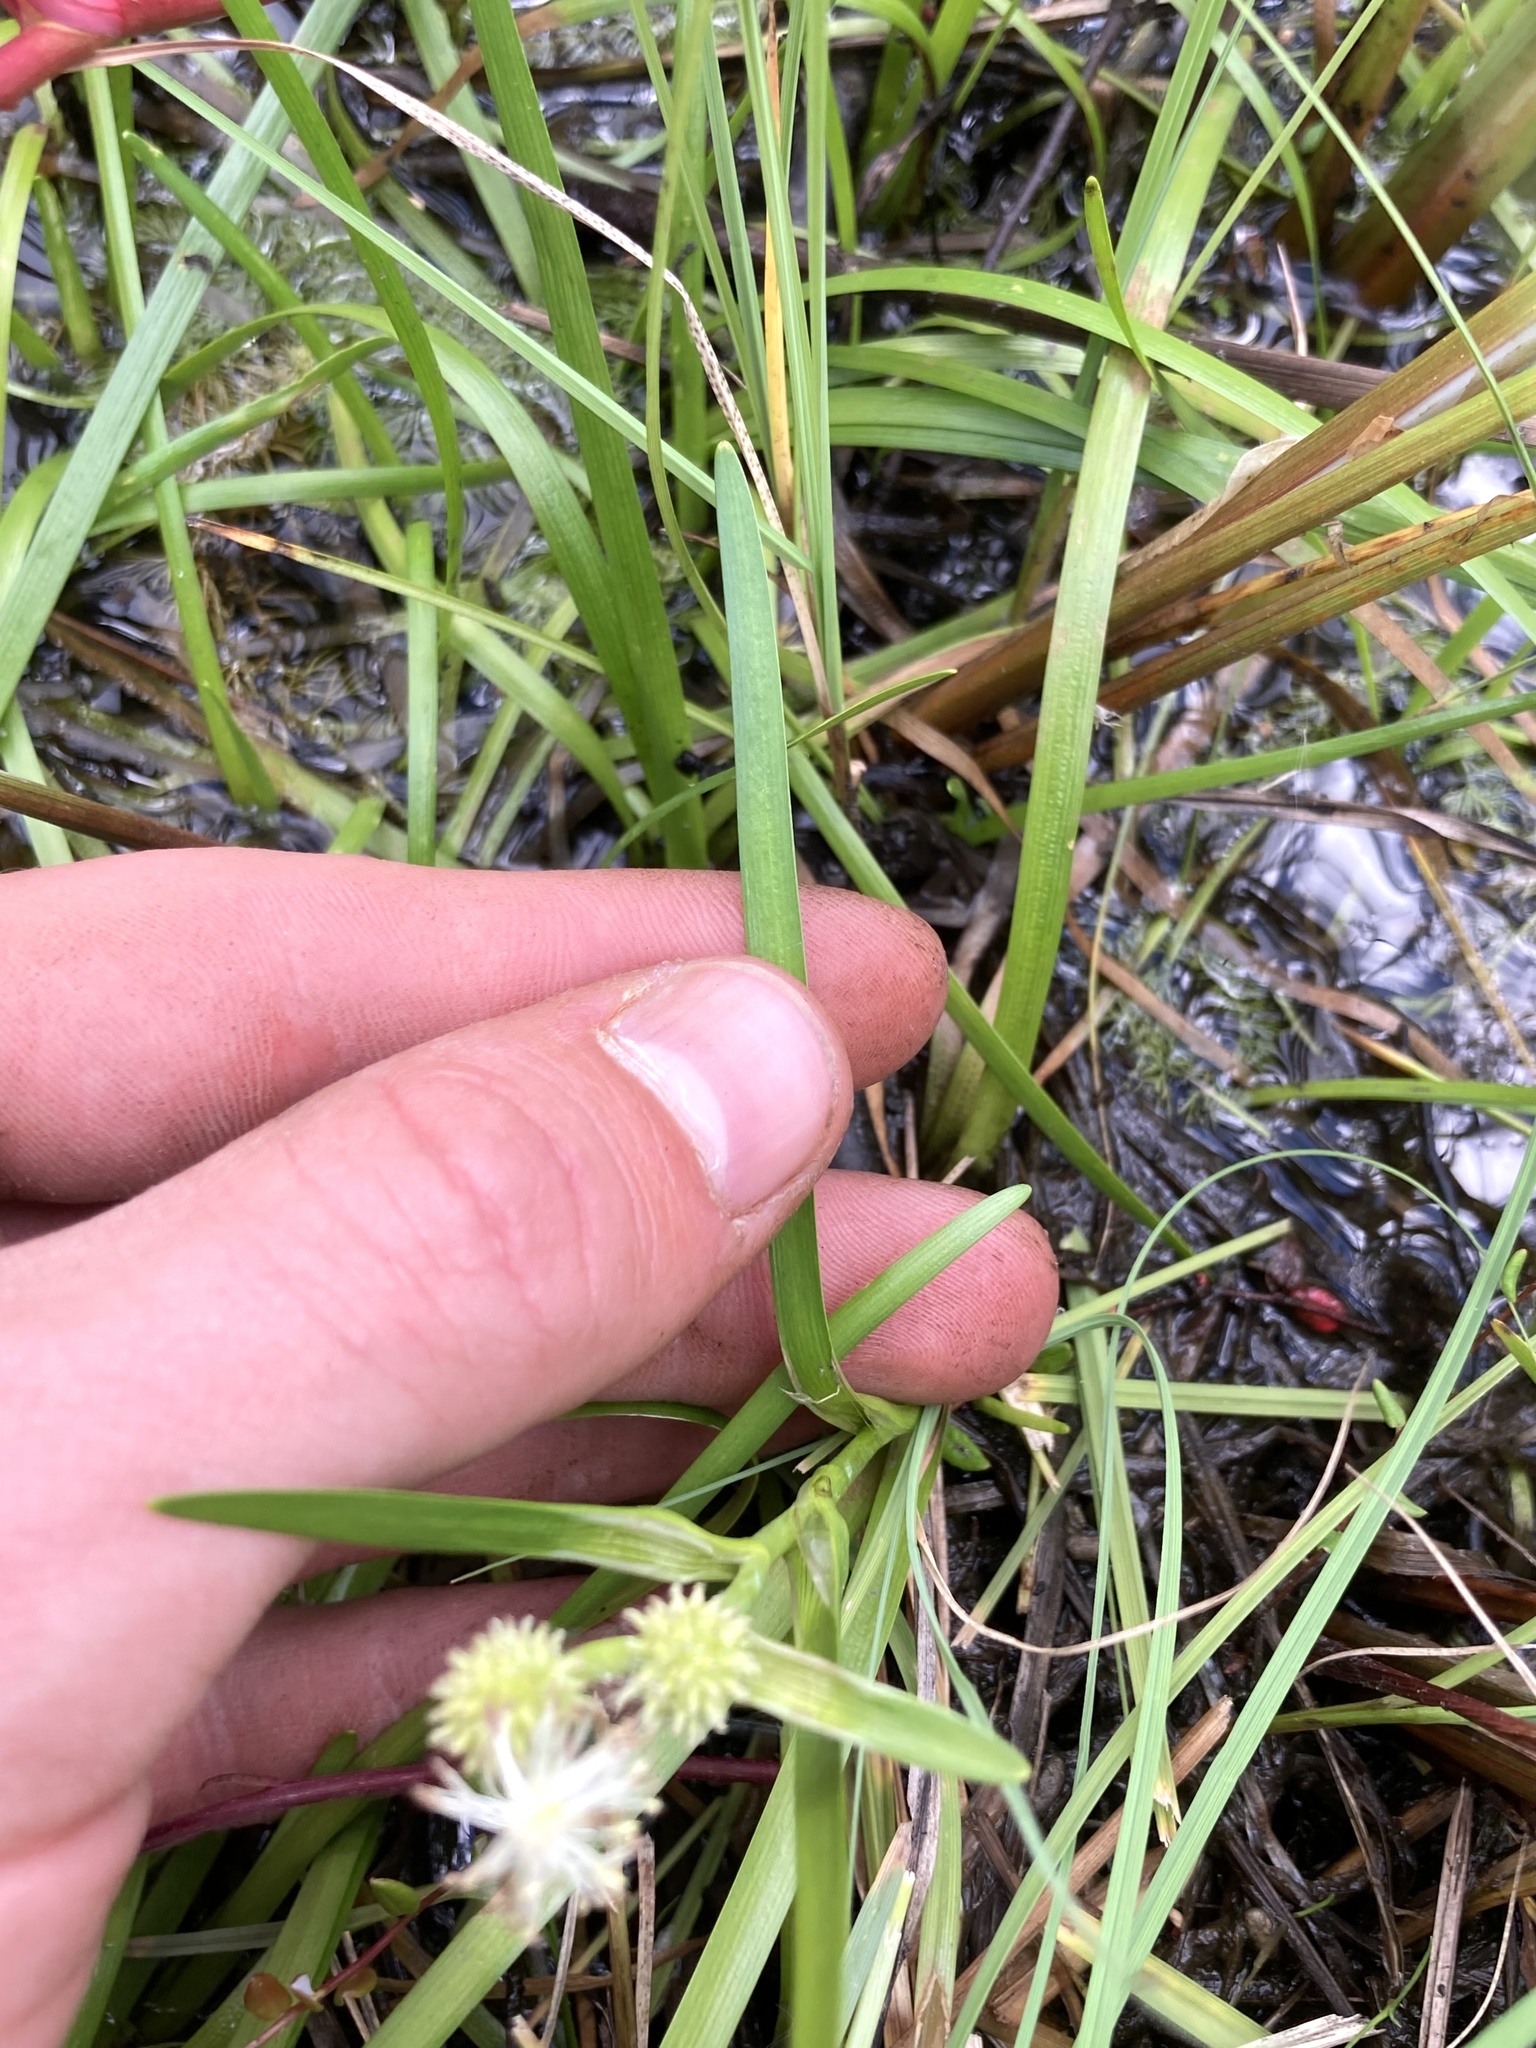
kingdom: Plantae
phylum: Tracheophyta
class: Liliopsida
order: Poales
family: Typhaceae
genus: Sparganium
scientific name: Sparganium natans
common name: Least bur-reed
